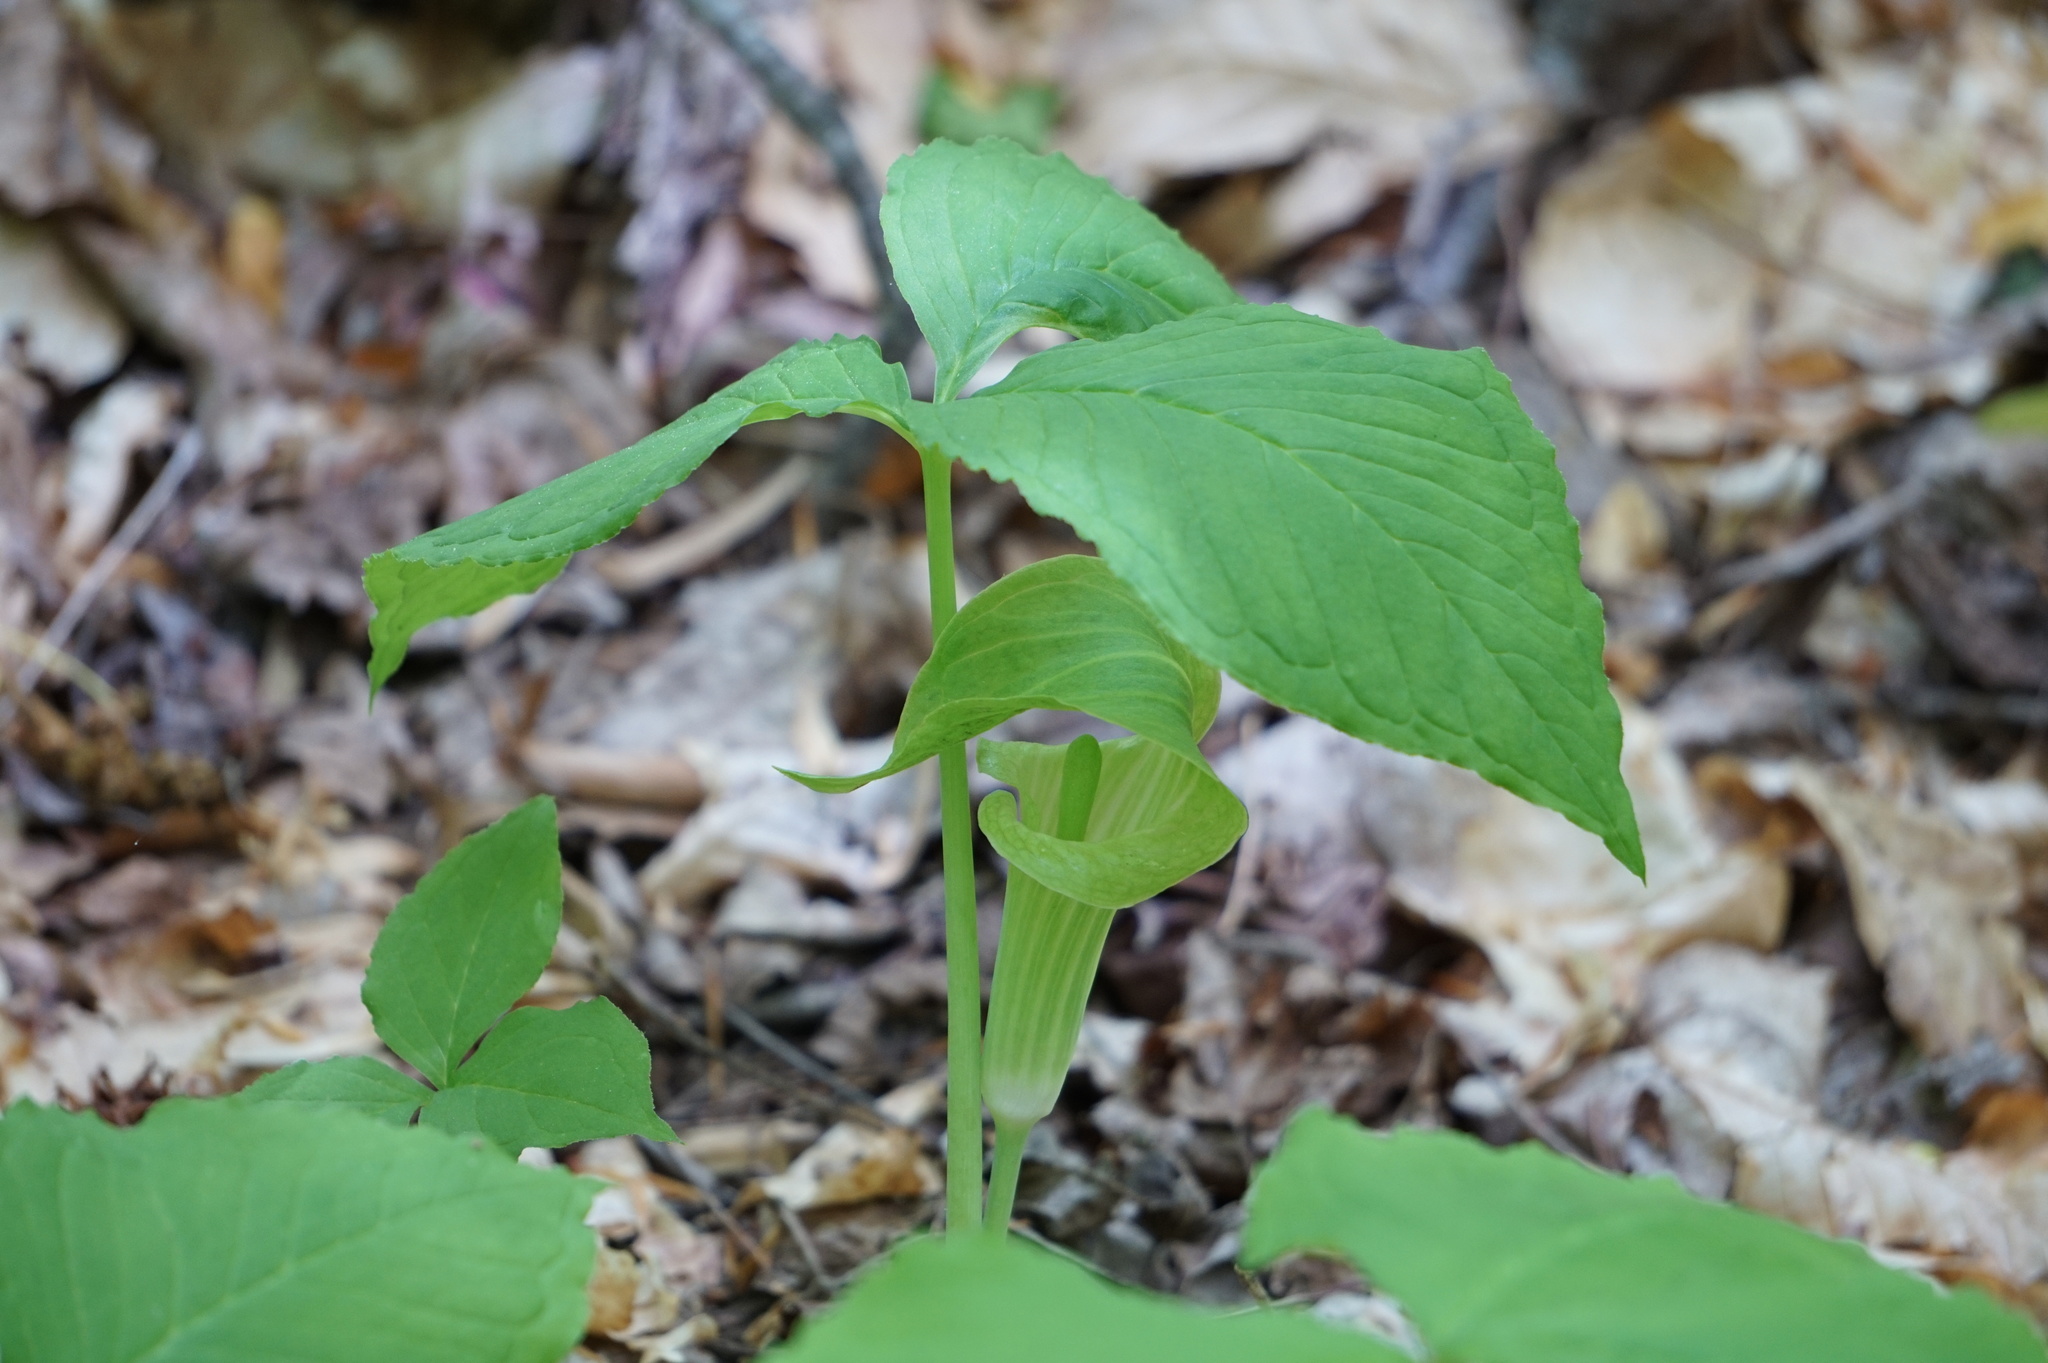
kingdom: Plantae
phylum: Tracheophyta
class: Liliopsida
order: Alismatales
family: Araceae
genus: Arisaema
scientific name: Arisaema triphyllum
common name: Jack-in-the-pulpit
